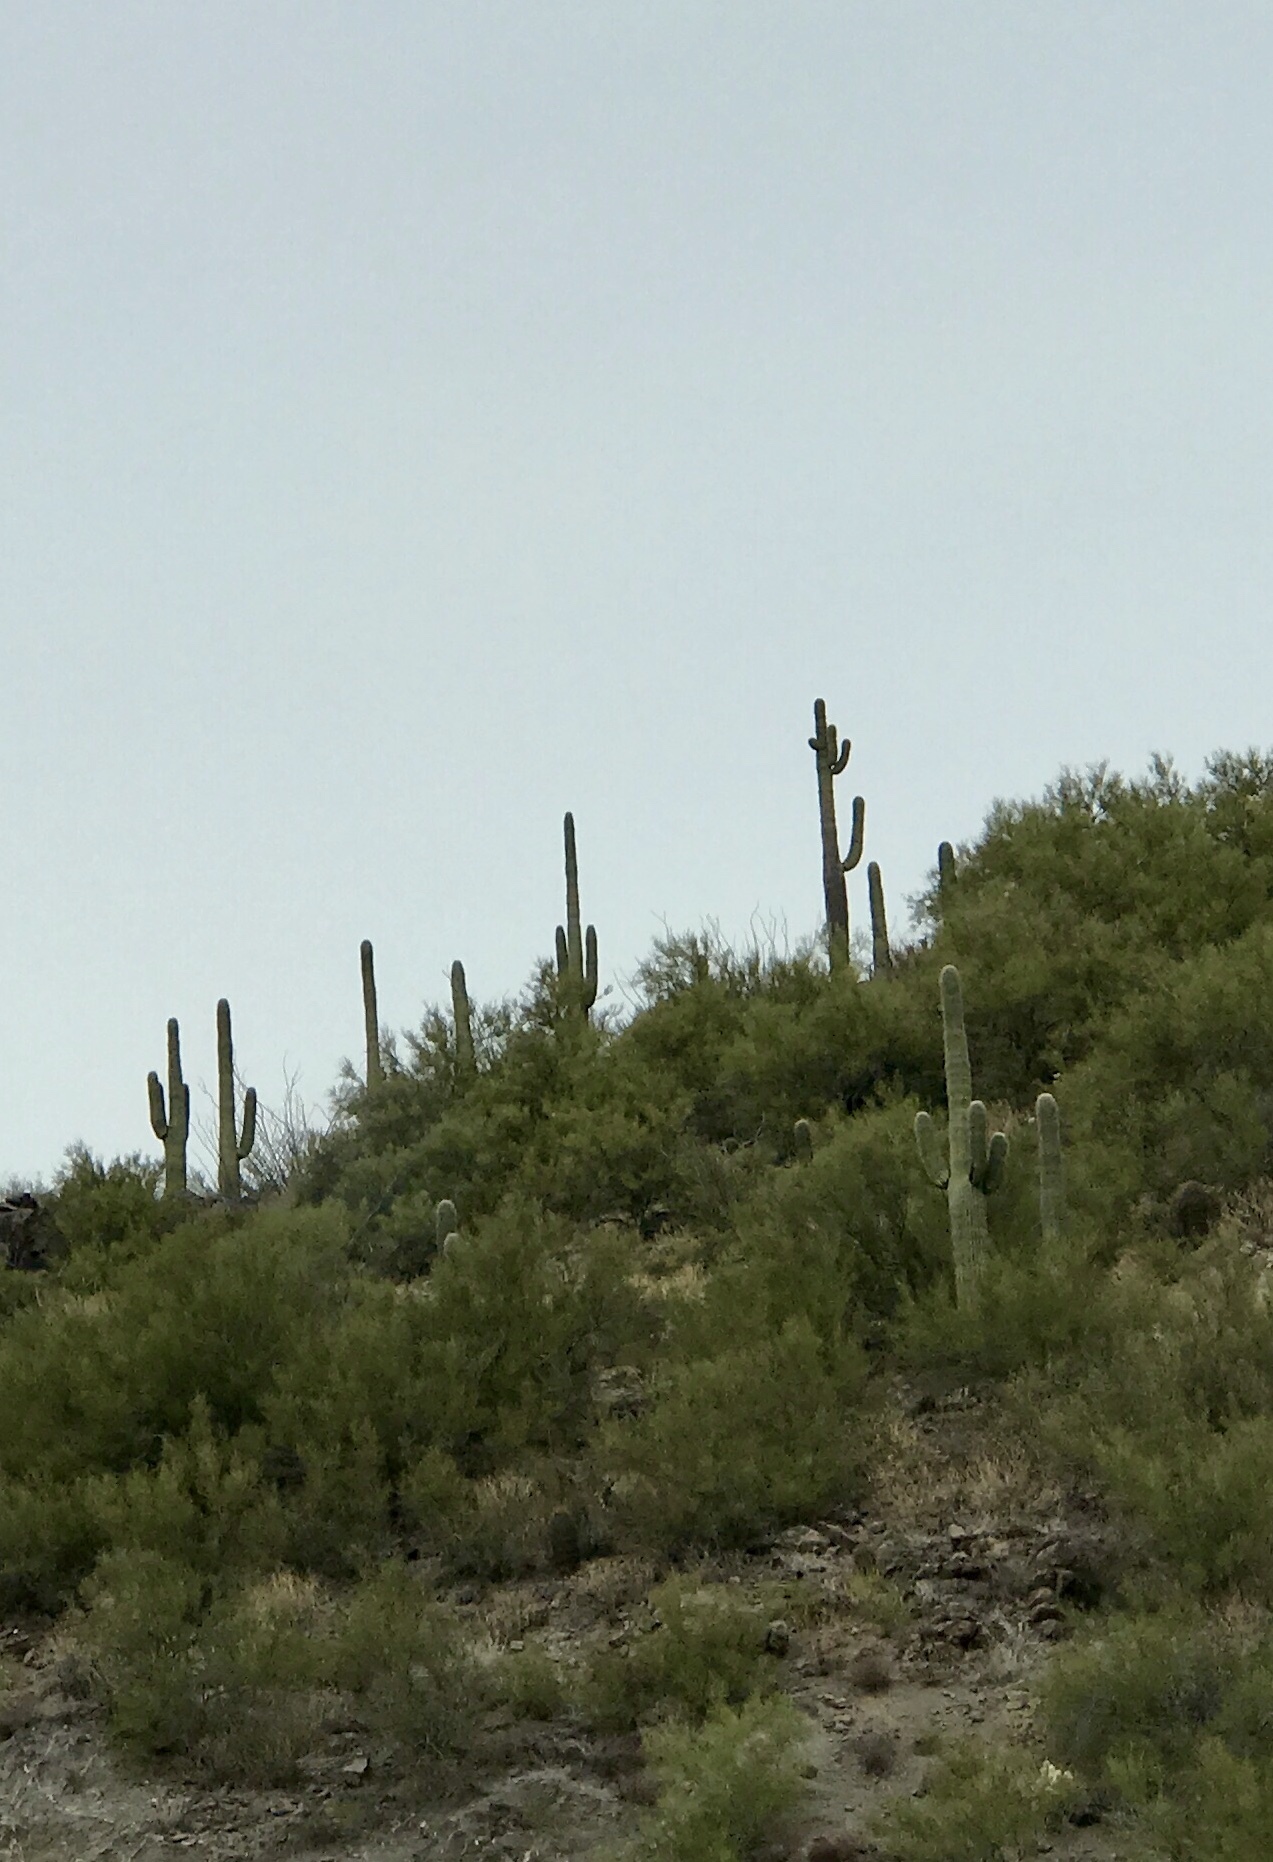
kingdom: Plantae
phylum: Tracheophyta
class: Magnoliopsida
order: Caryophyllales
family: Cactaceae
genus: Carnegiea
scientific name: Carnegiea gigantea
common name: Saguaro
